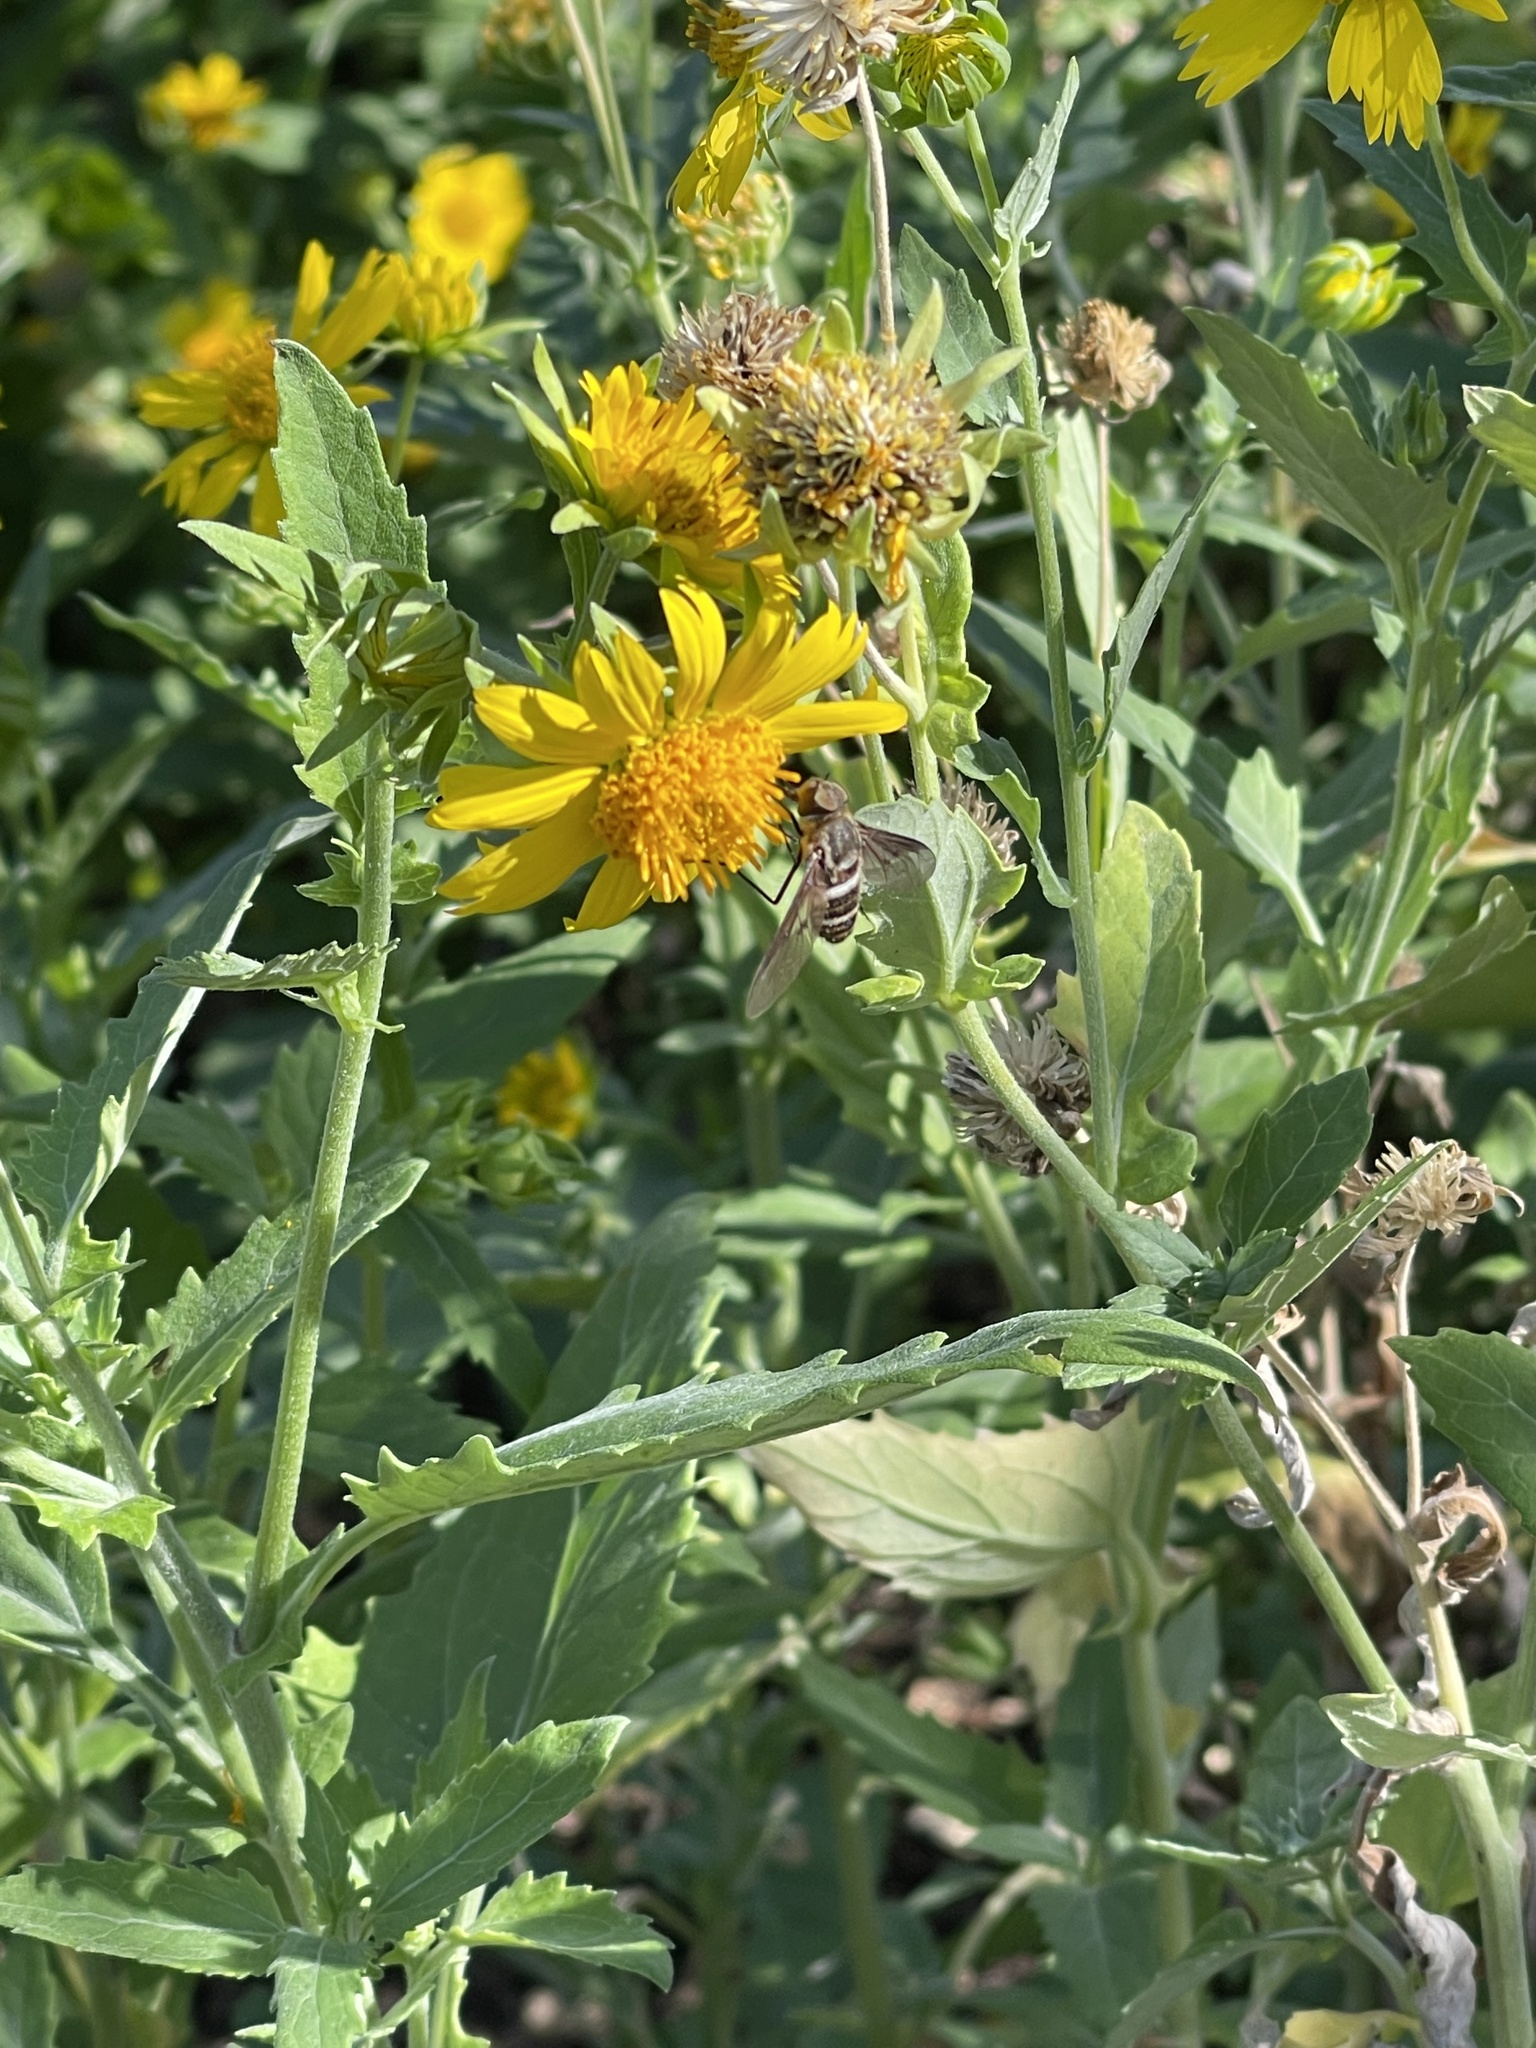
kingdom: Plantae
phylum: Tracheophyta
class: Magnoliopsida
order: Asterales
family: Asteraceae
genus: Verbesina
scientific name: Verbesina encelioides
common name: Golden crownbeard
